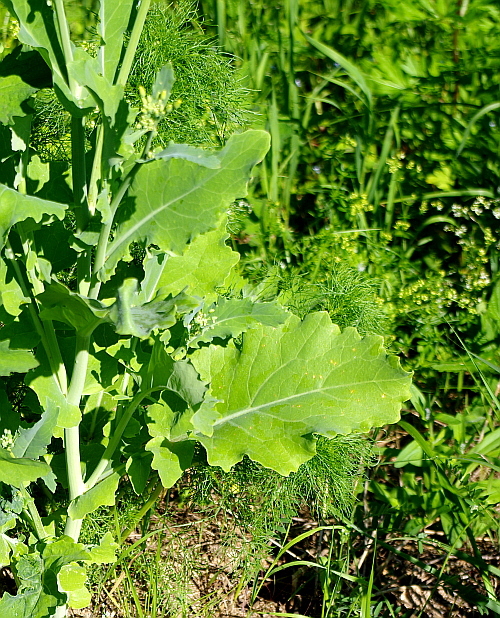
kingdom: Plantae
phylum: Tracheophyta
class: Magnoliopsida
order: Brassicales
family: Brassicaceae
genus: Brassica
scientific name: Brassica napus
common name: Rape
